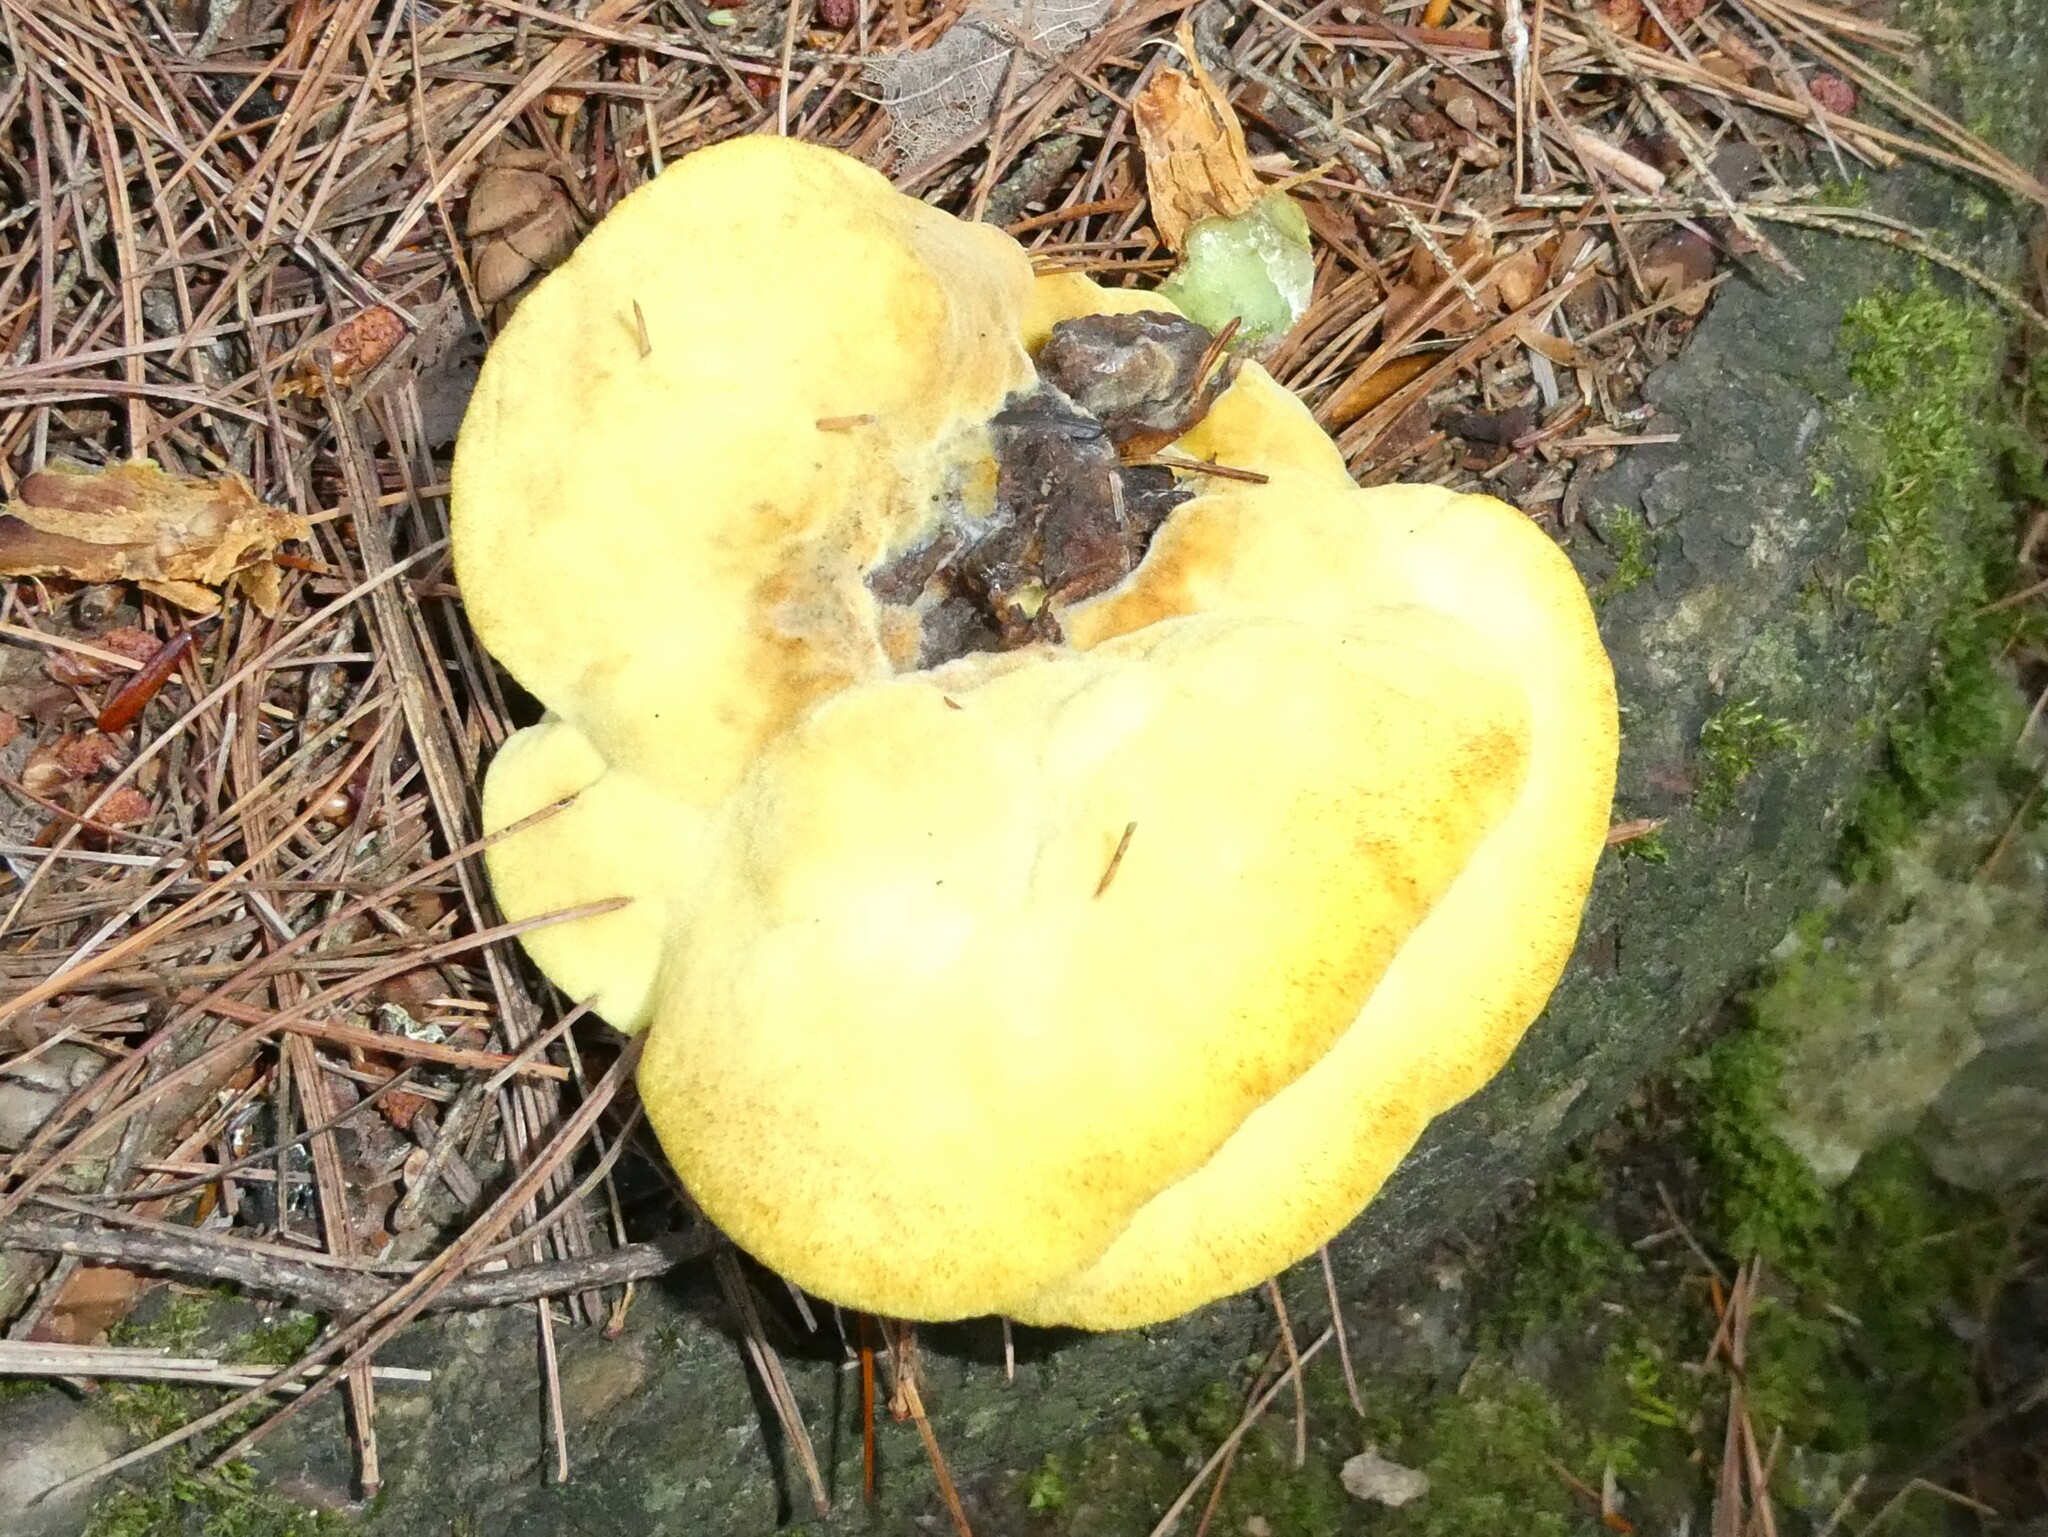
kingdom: Fungi
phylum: Basidiomycota
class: Agaricomycetes
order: Polyporales
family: Laetiporaceae
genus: Phaeolus
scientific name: Phaeolus schweinitzii
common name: Dyer's mazegill
